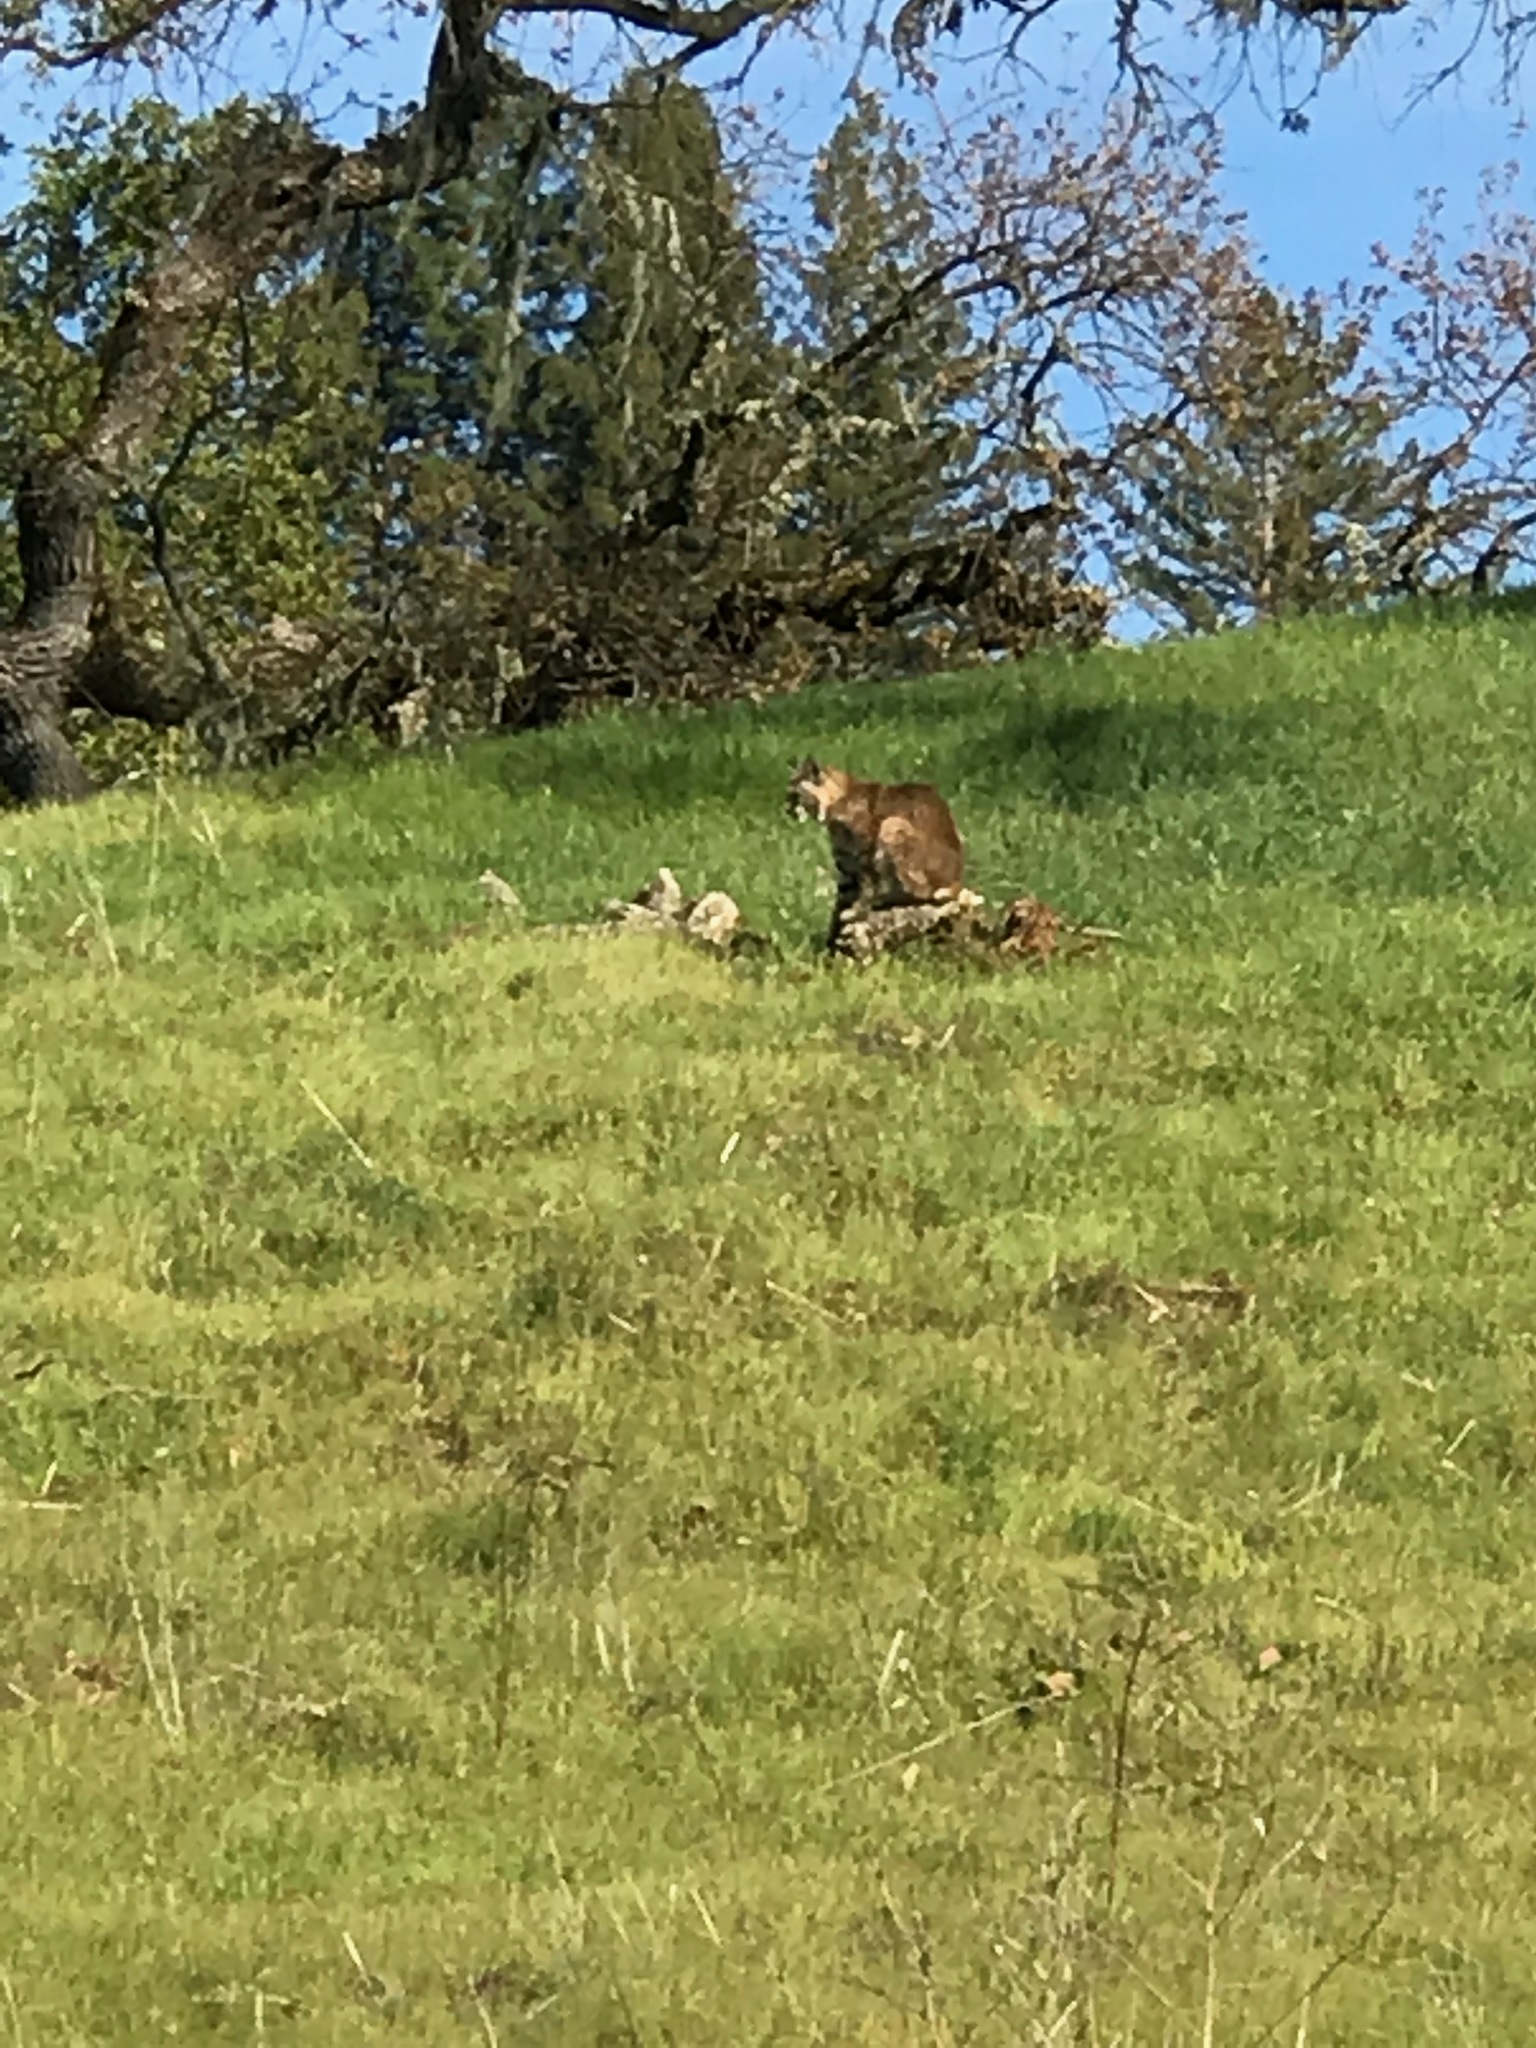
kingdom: Animalia
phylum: Chordata
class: Mammalia
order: Carnivora
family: Felidae
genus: Lynx
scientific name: Lynx rufus
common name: Bobcat
